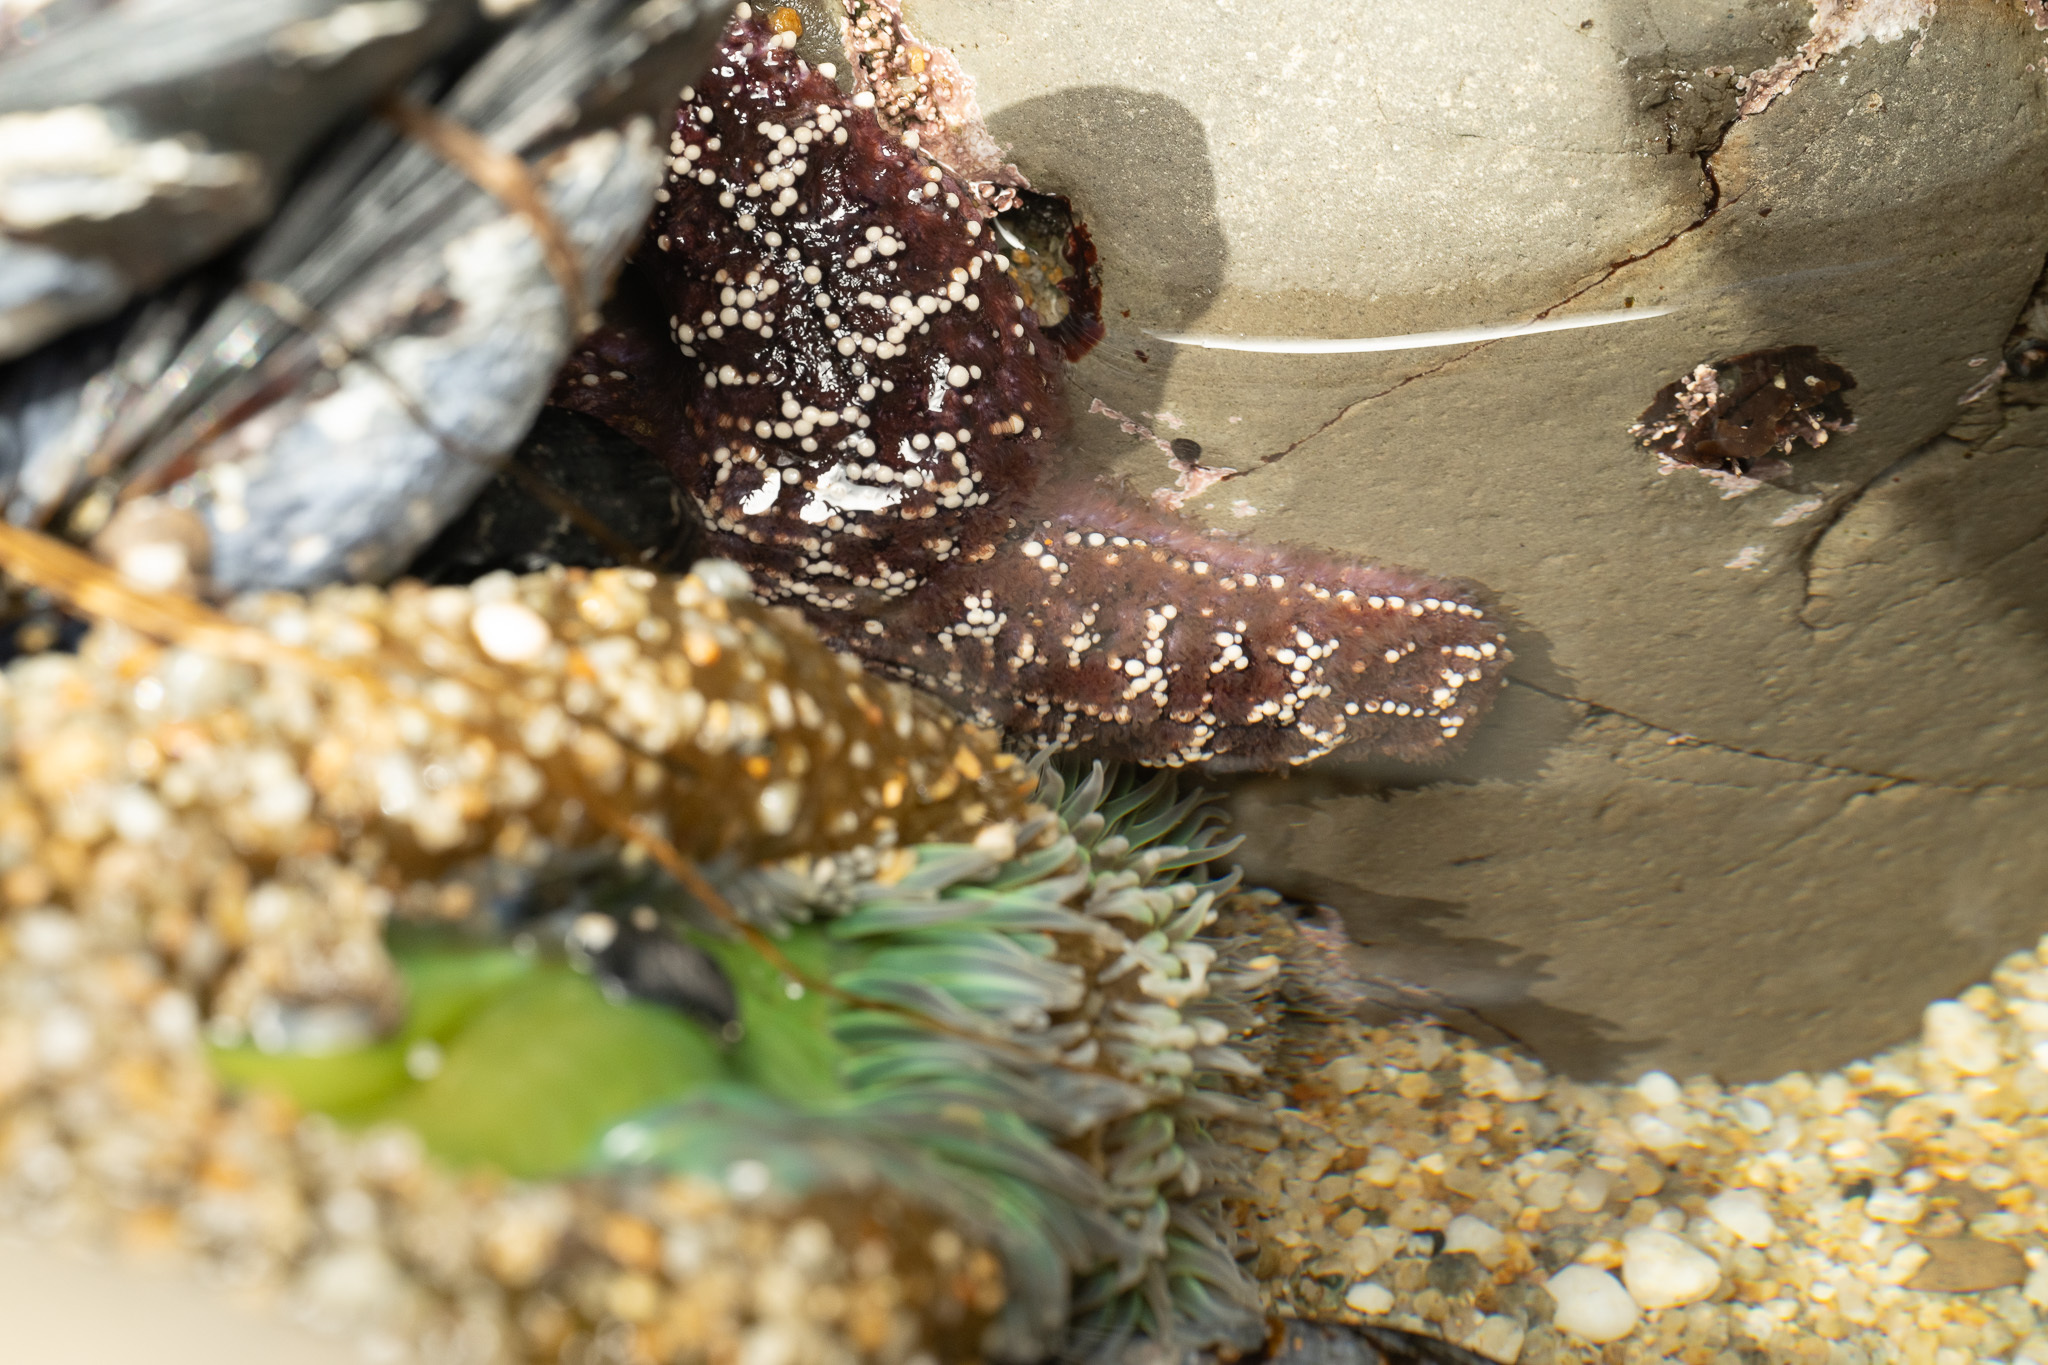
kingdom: Animalia
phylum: Echinodermata
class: Asteroidea
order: Forcipulatida
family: Asteriidae
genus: Pisaster
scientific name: Pisaster ochraceus
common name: Ochre stars
